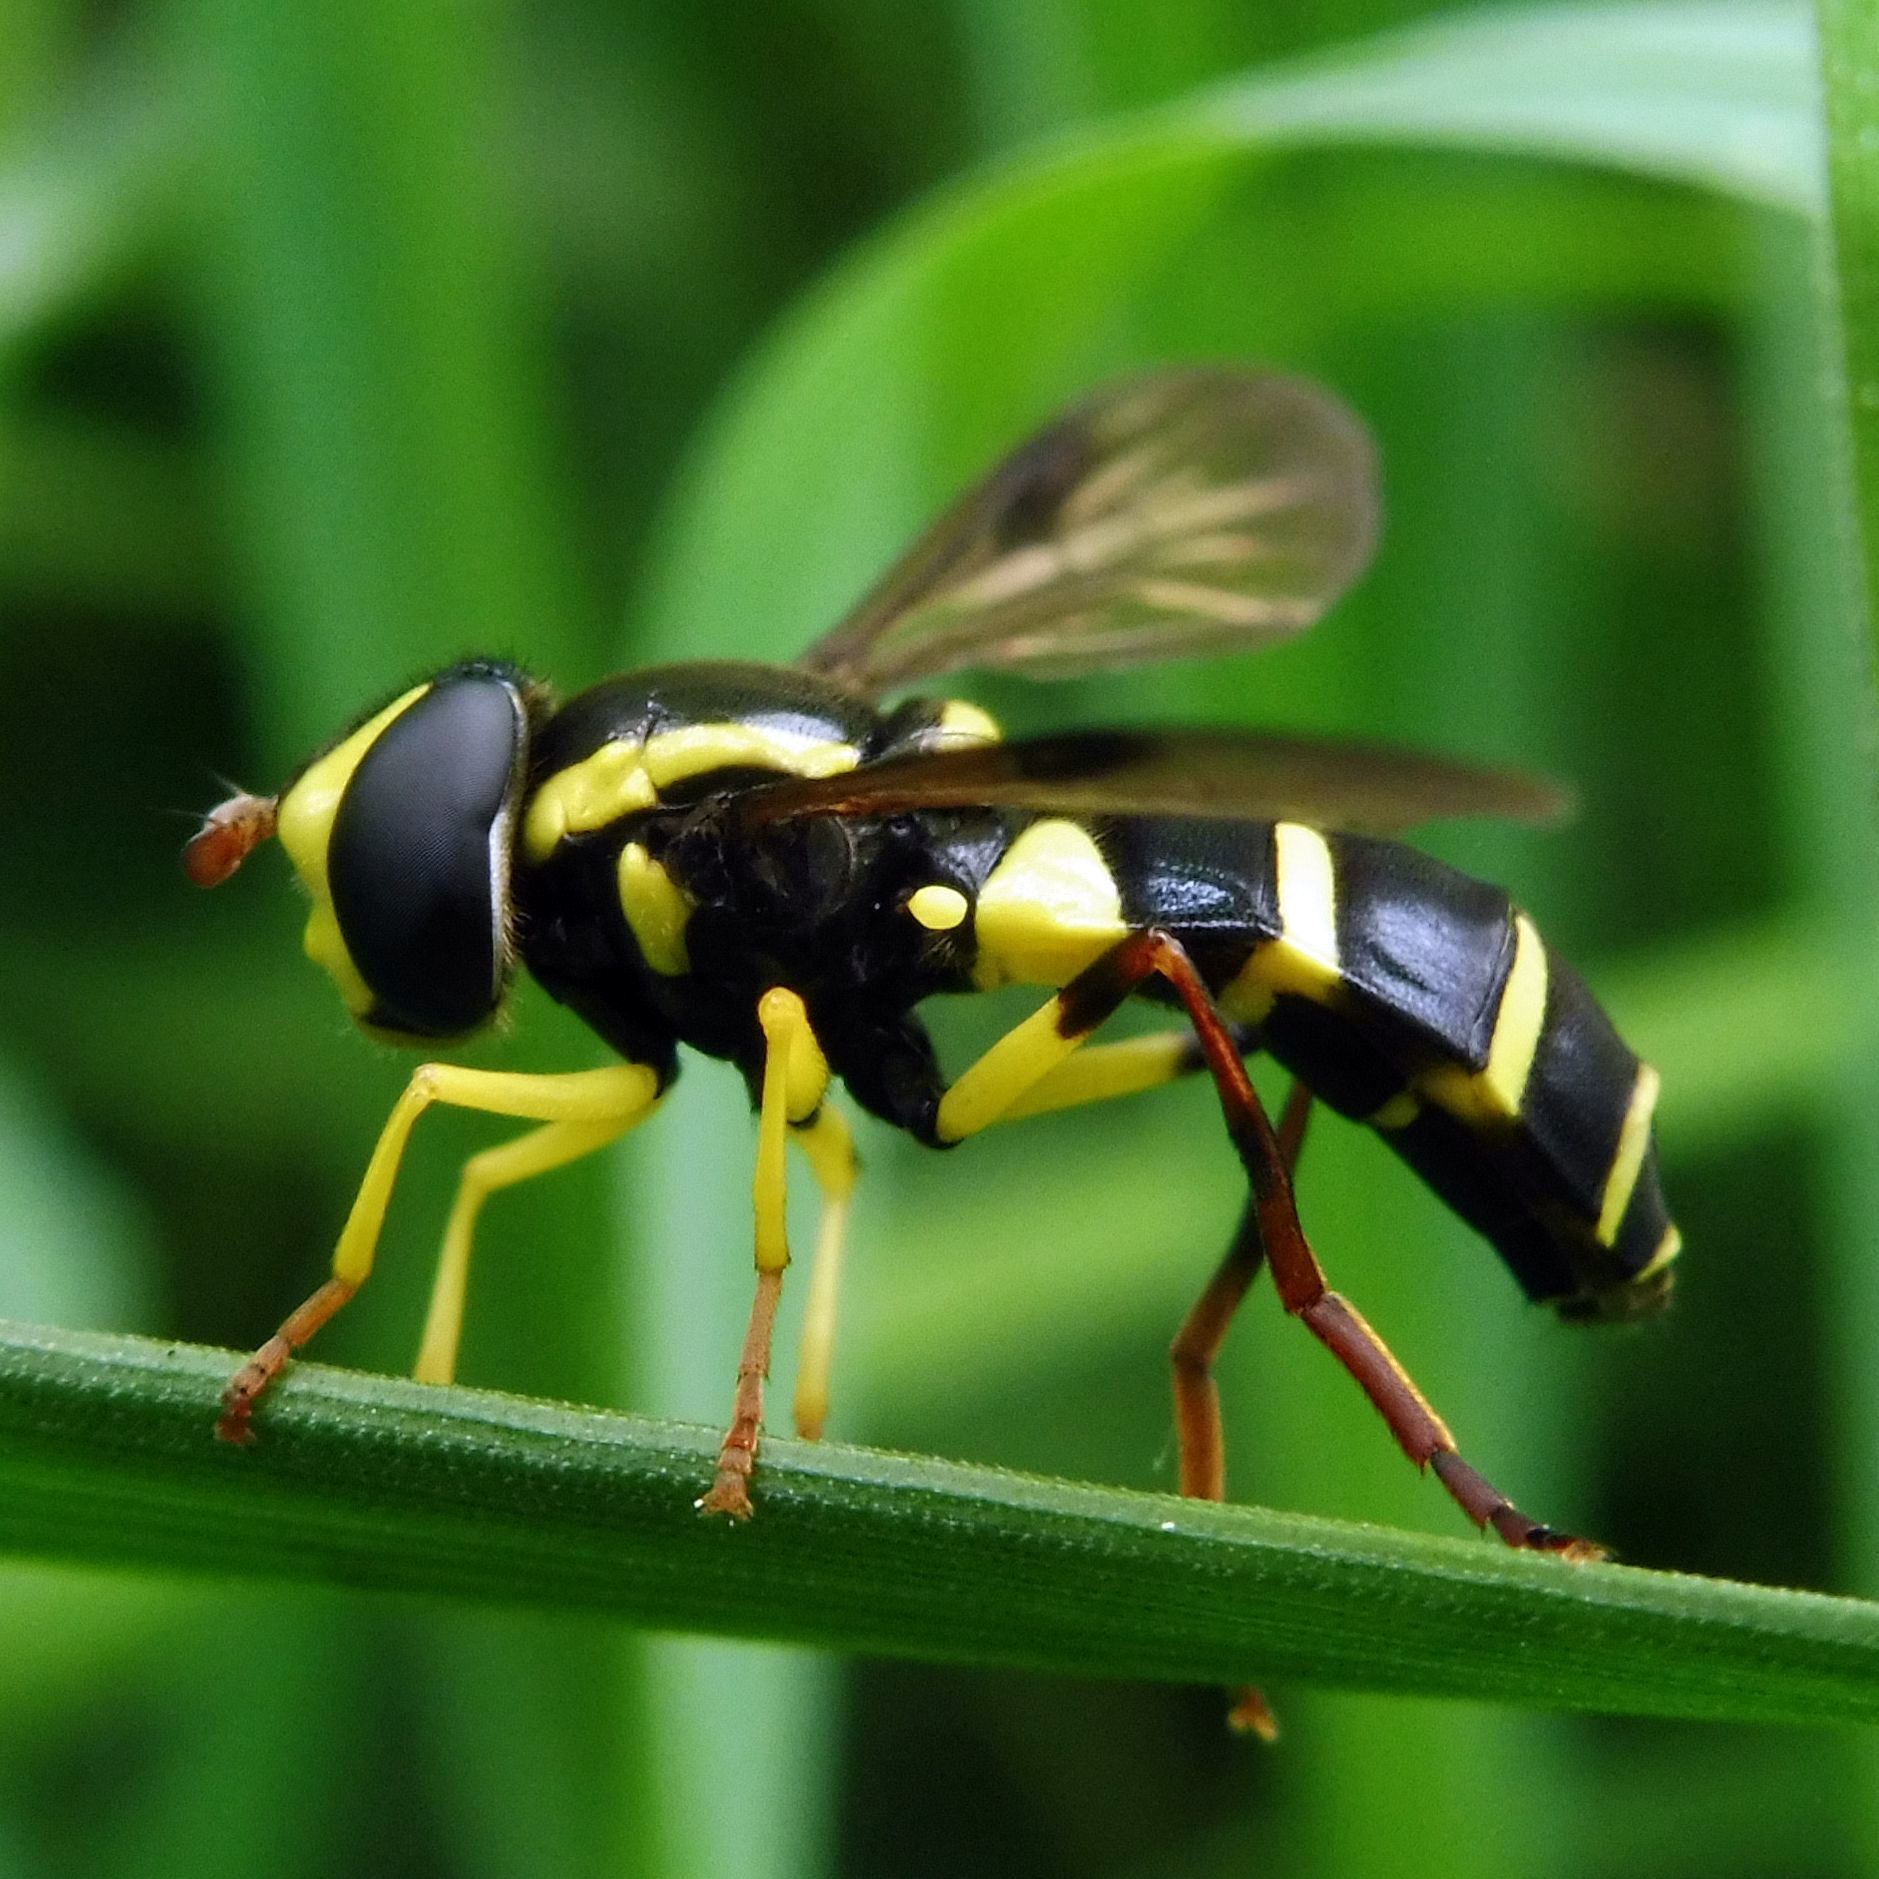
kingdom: Animalia
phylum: Arthropoda
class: Insecta
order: Diptera
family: Syrphidae
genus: Philhelius
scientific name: Philhelius pedissequum
